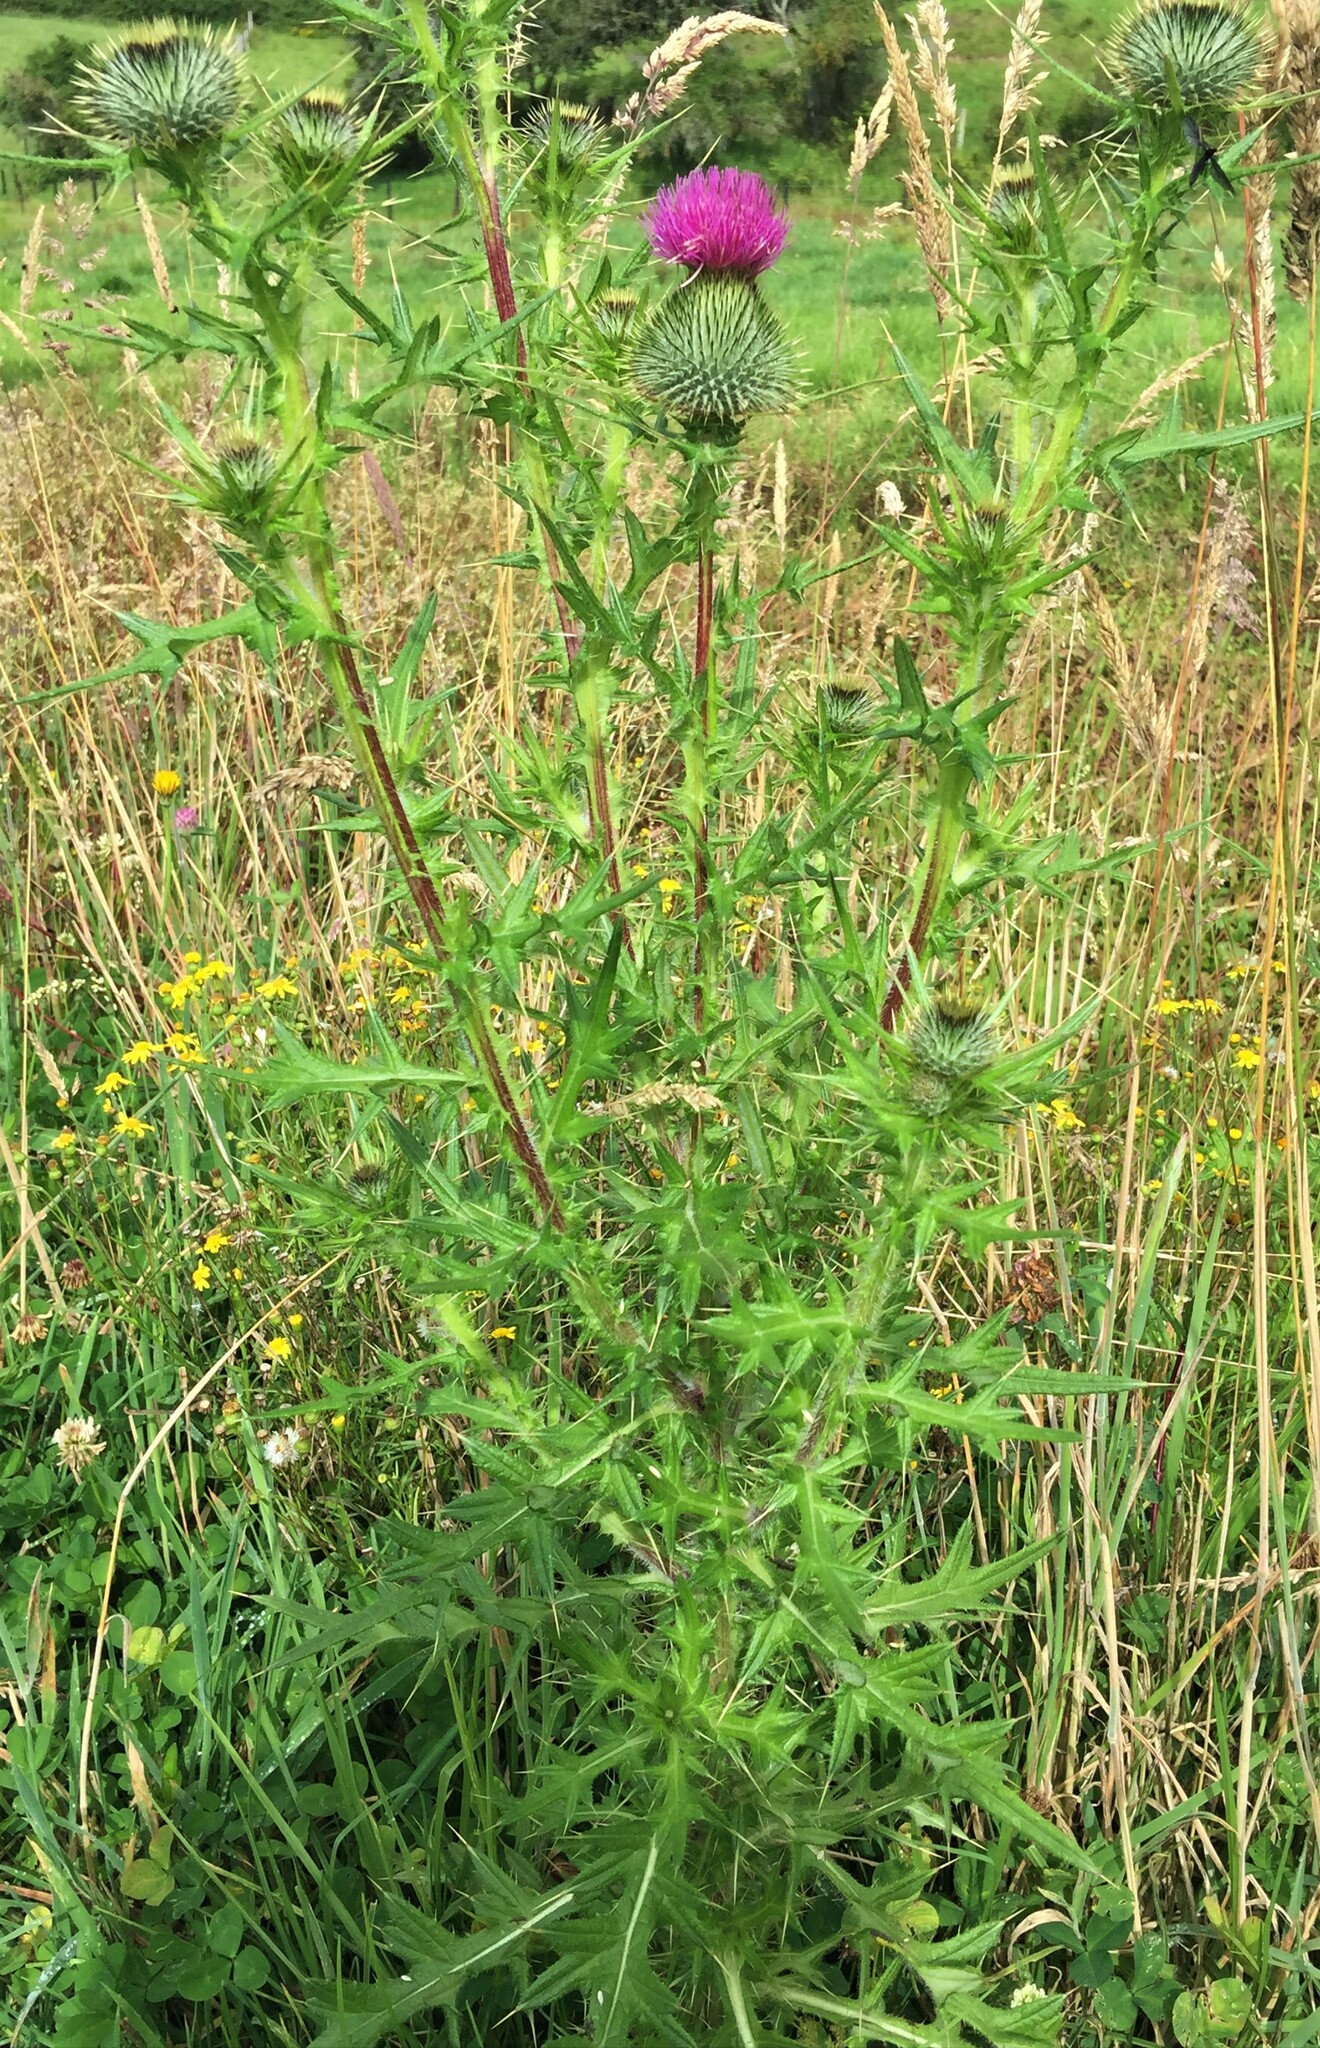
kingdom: Plantae
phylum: Tracheophyta
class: Magnoliopsida
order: Asterales
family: Asteraceae
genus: Cirsium
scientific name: Cirsium vulgare
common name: Bull thistle
